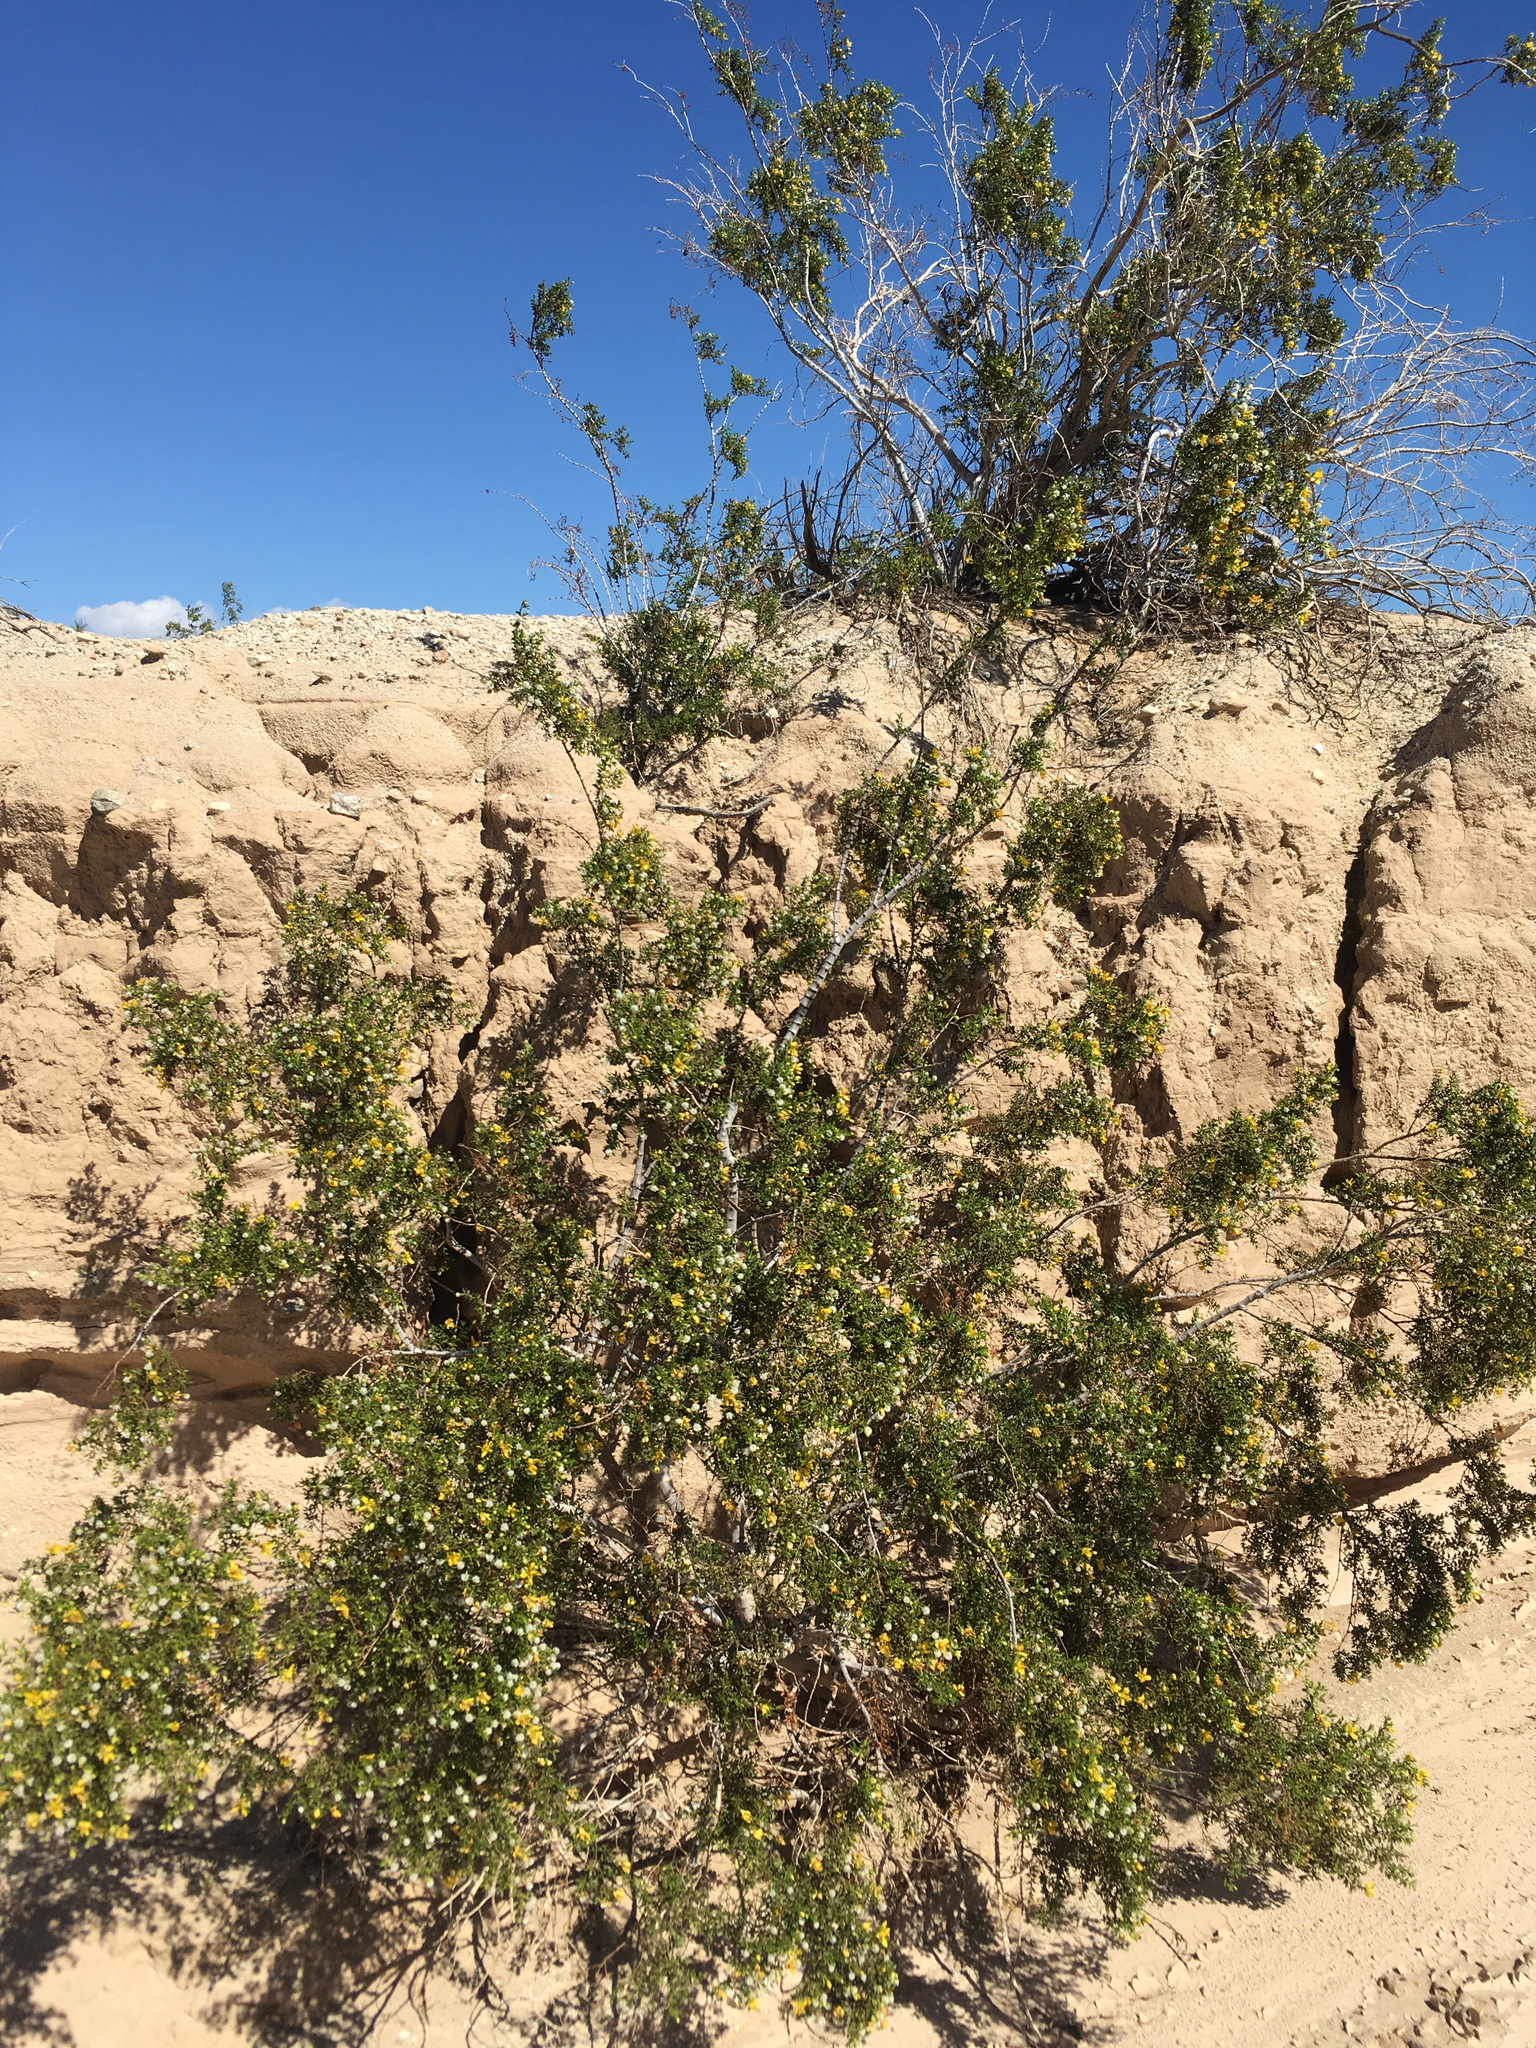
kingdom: Plantae
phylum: Tracheophyta
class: Magnoliopsida
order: Zygophyllales
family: Zygophyllaceae
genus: Larrea
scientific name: Larrea tridentata
